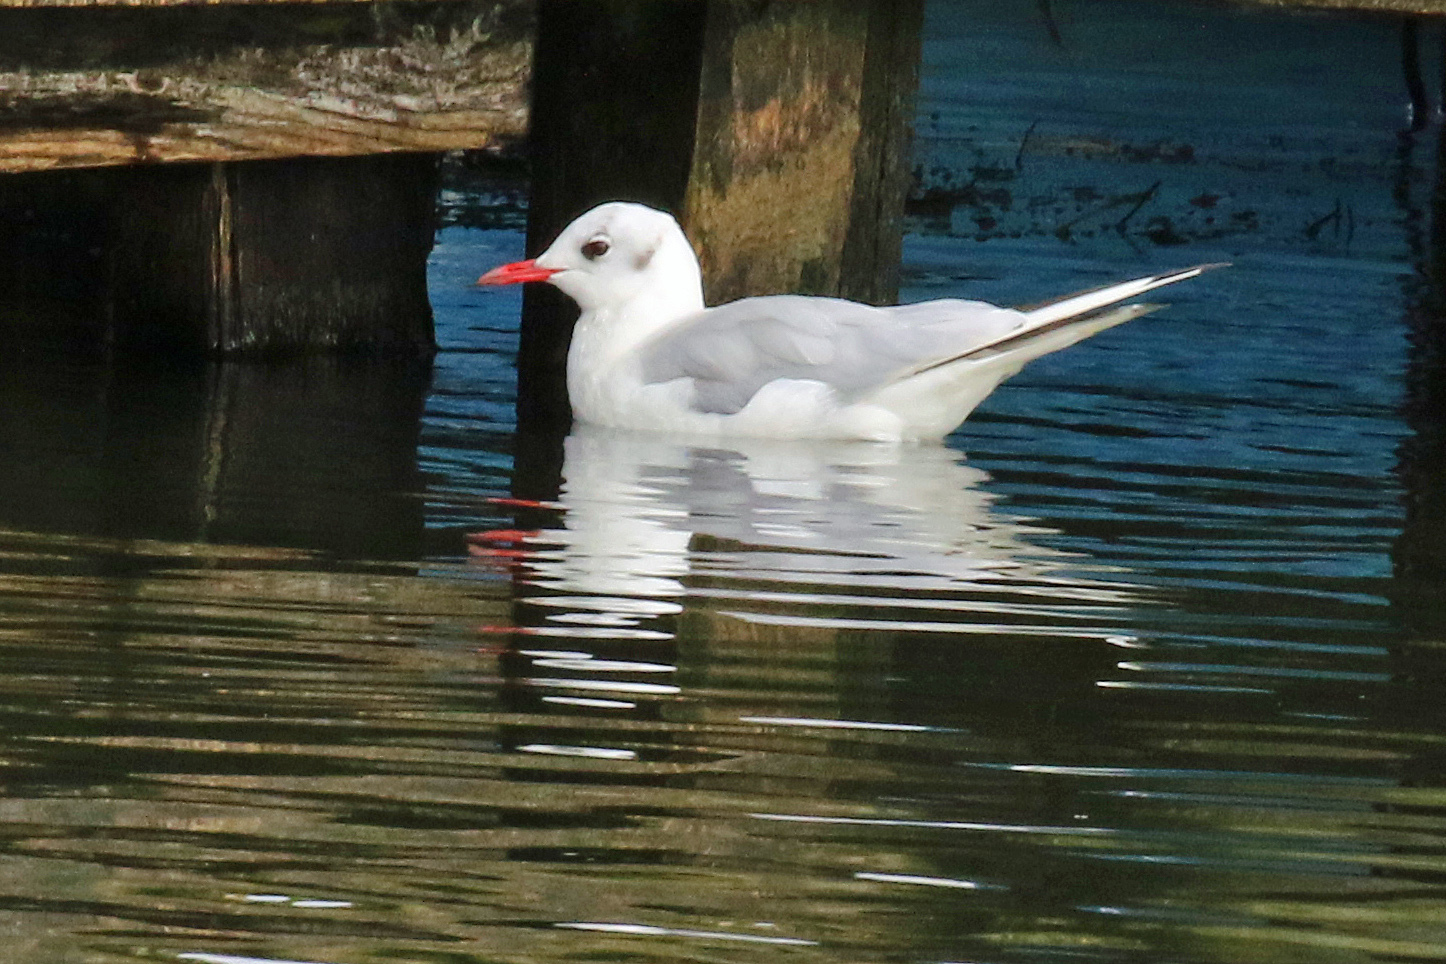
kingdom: Animalia
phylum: Chordata
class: Aves
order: Charadriiformes
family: Laridae
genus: Chroicocephalus
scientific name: Chroicocephalus ridibundus
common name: Black-headed gull
